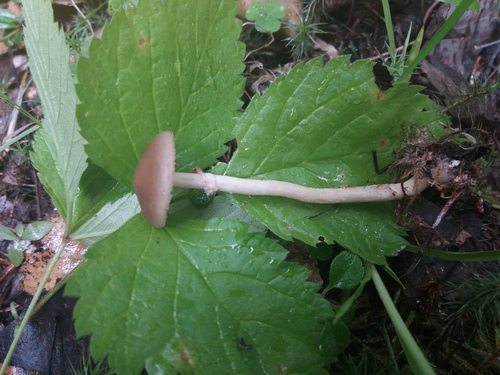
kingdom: Fungi
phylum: Basidiomycota
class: Agaricomycetes
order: Agaricales
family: Strophariaceae
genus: Agrocybe
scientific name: Agrocybe praecox
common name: Spring fieldcap
